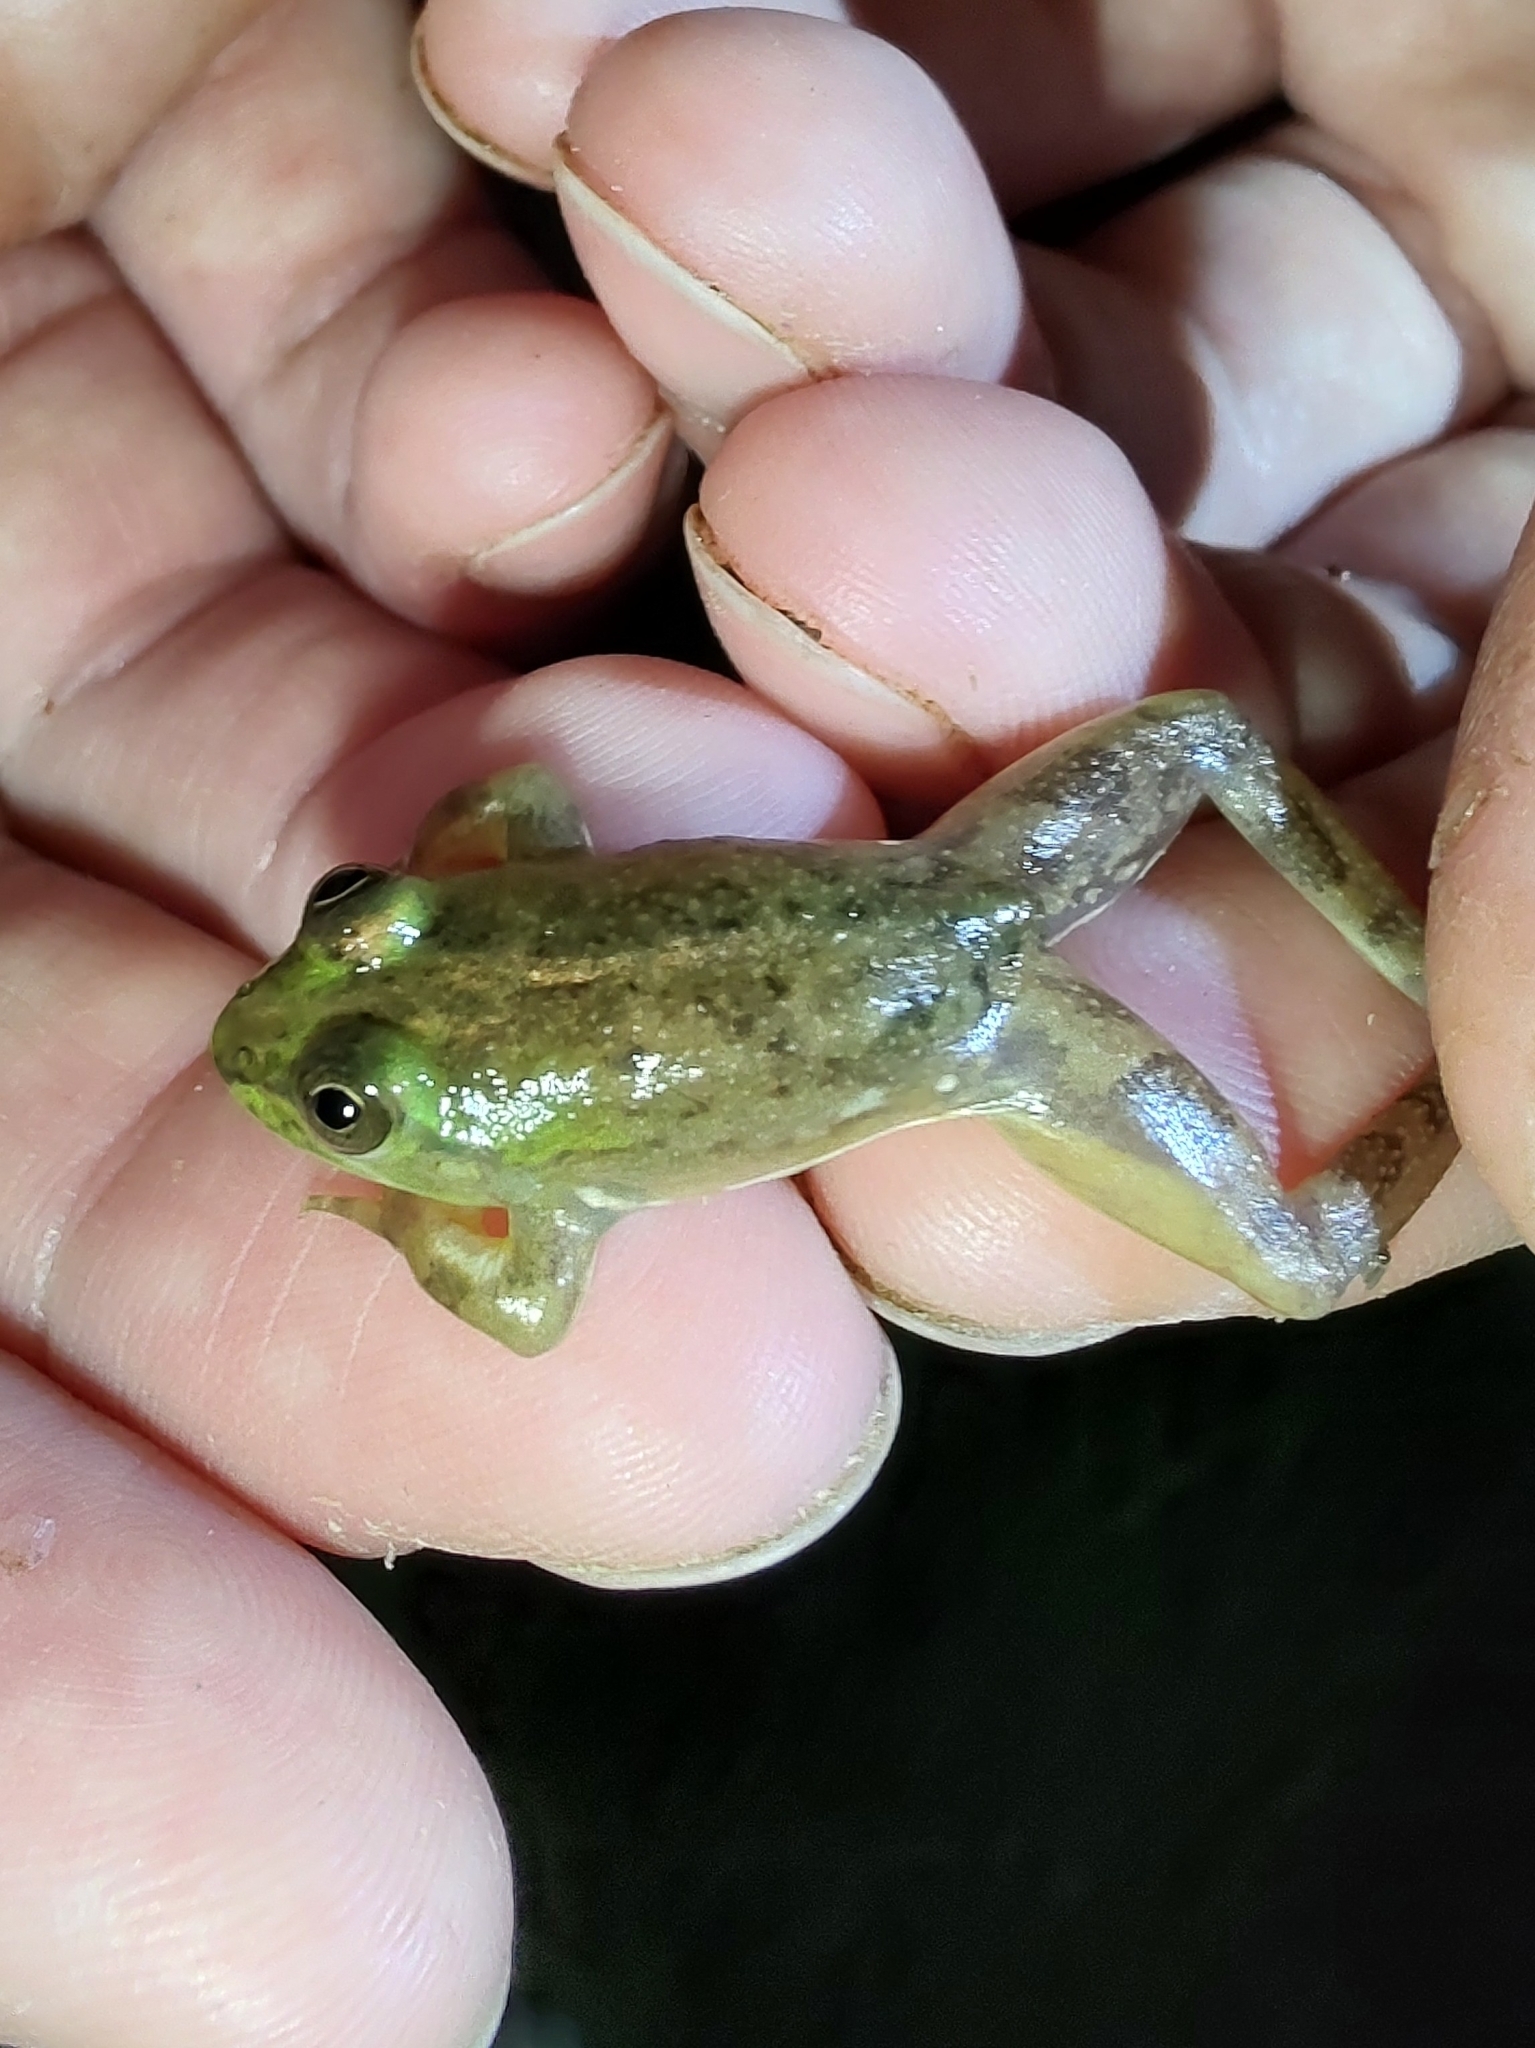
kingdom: Animalia
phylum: Chordata
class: Amphibia
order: Anura
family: Hylidae
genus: Pseudis
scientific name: Pseudis minuta
